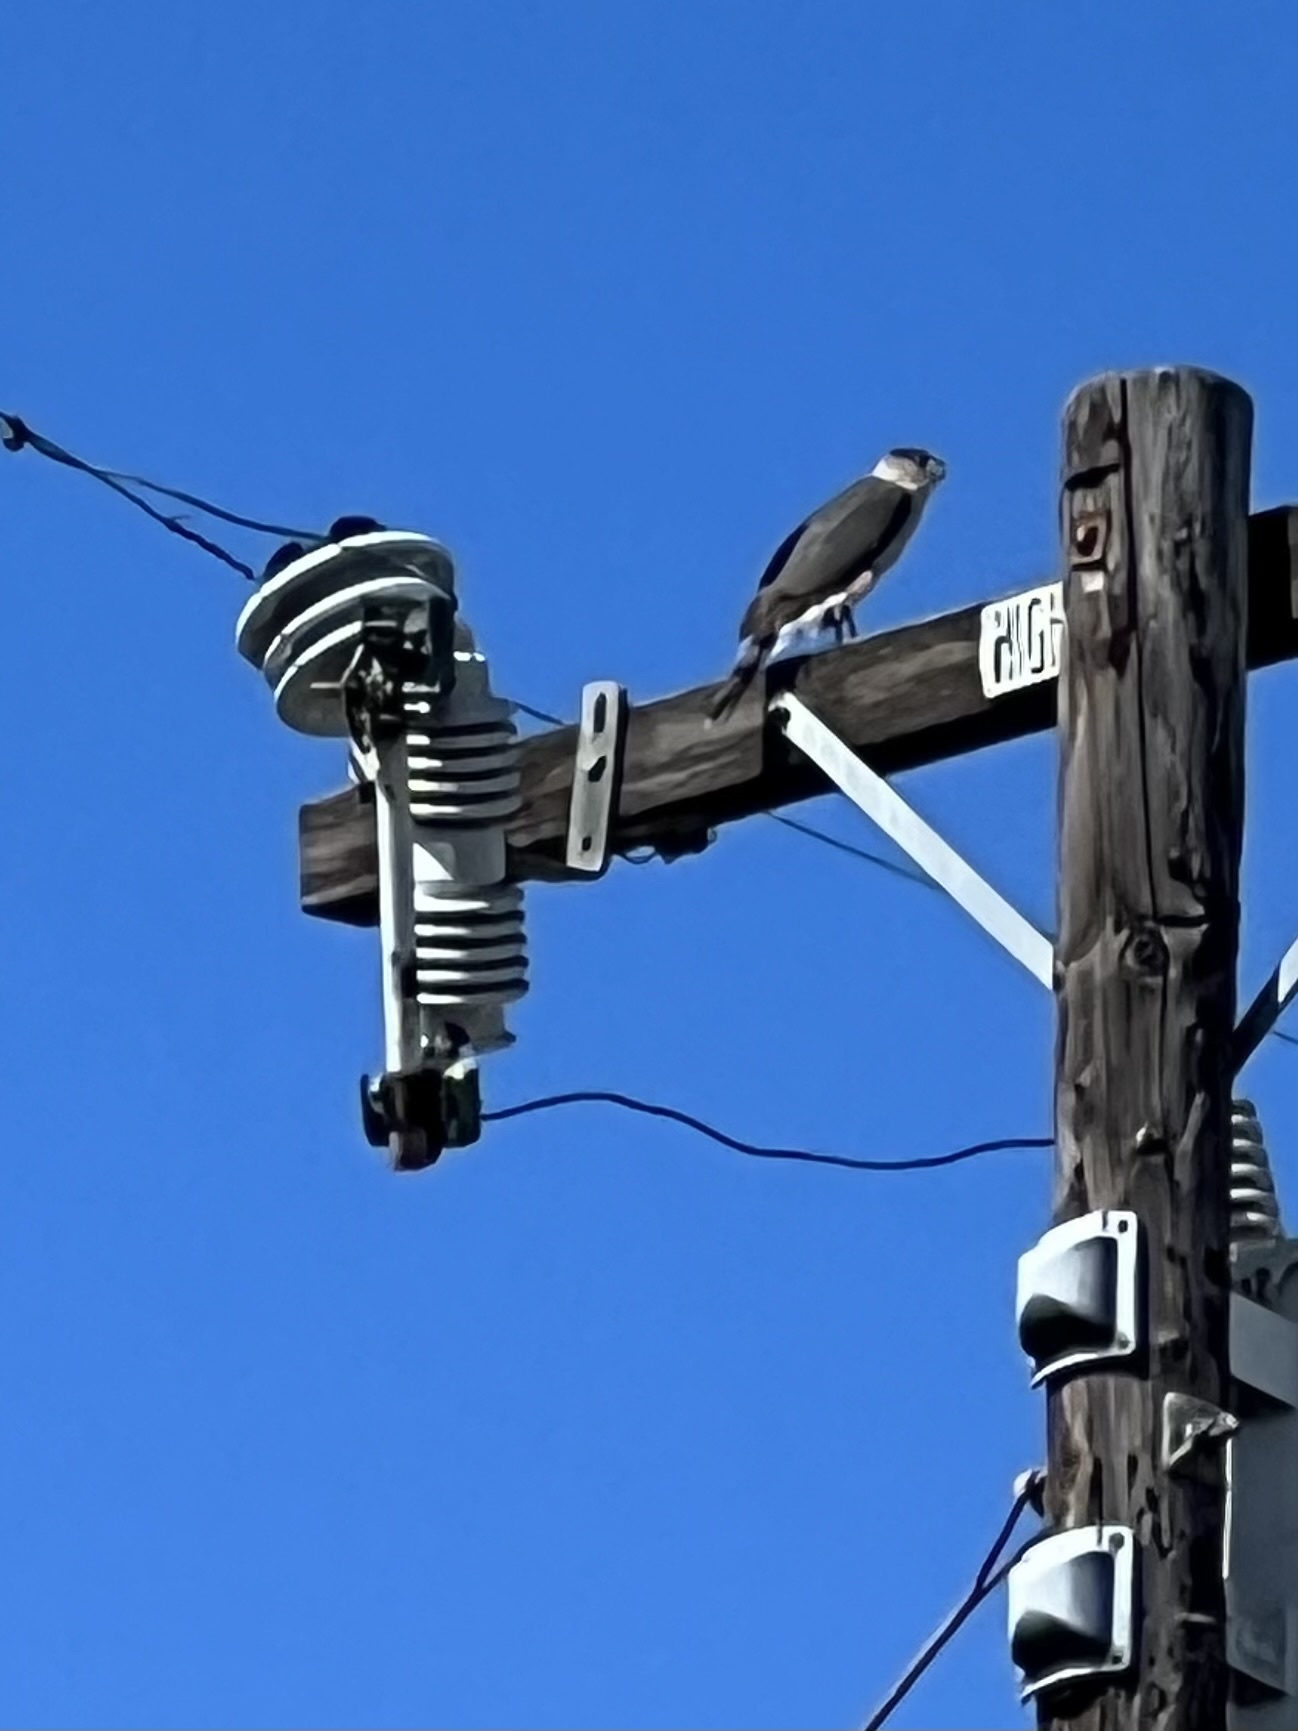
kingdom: Animalia
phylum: Chordata
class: Aves
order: Accipitriformes
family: Accipitridae
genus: Accipiter
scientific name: Accipiter cooperii
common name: Cooper's hawk
